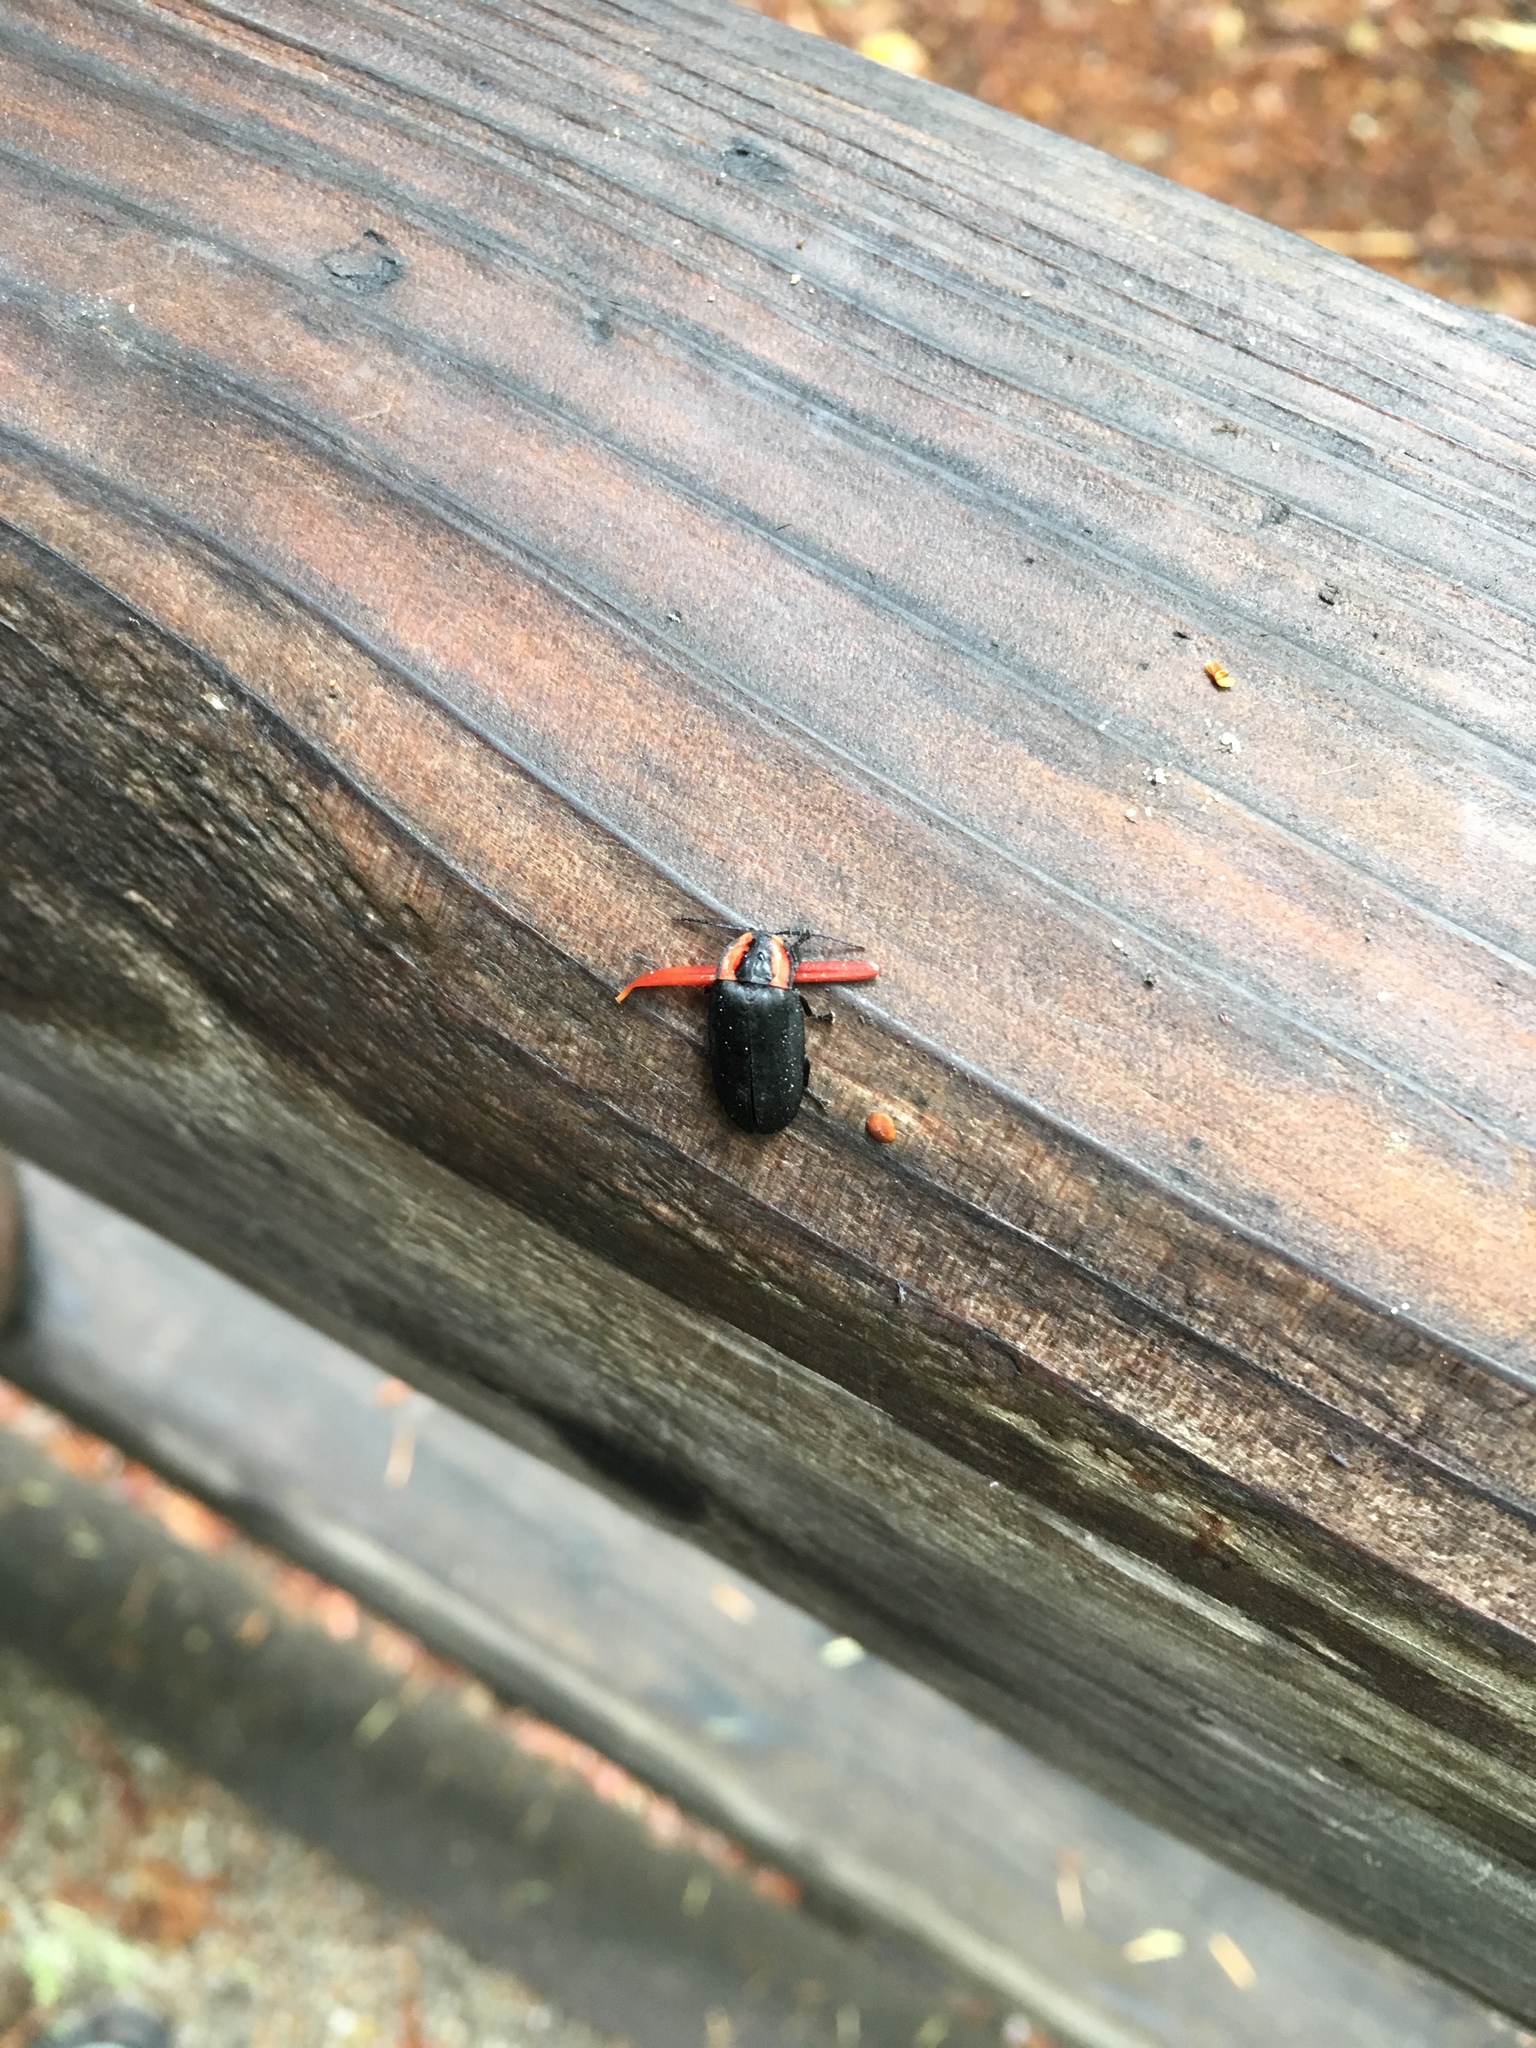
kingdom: Animalia
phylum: Arthropoda
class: Insecta
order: Coleoptera
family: Lampyridae
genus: Photinus
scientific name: Photinus californica
